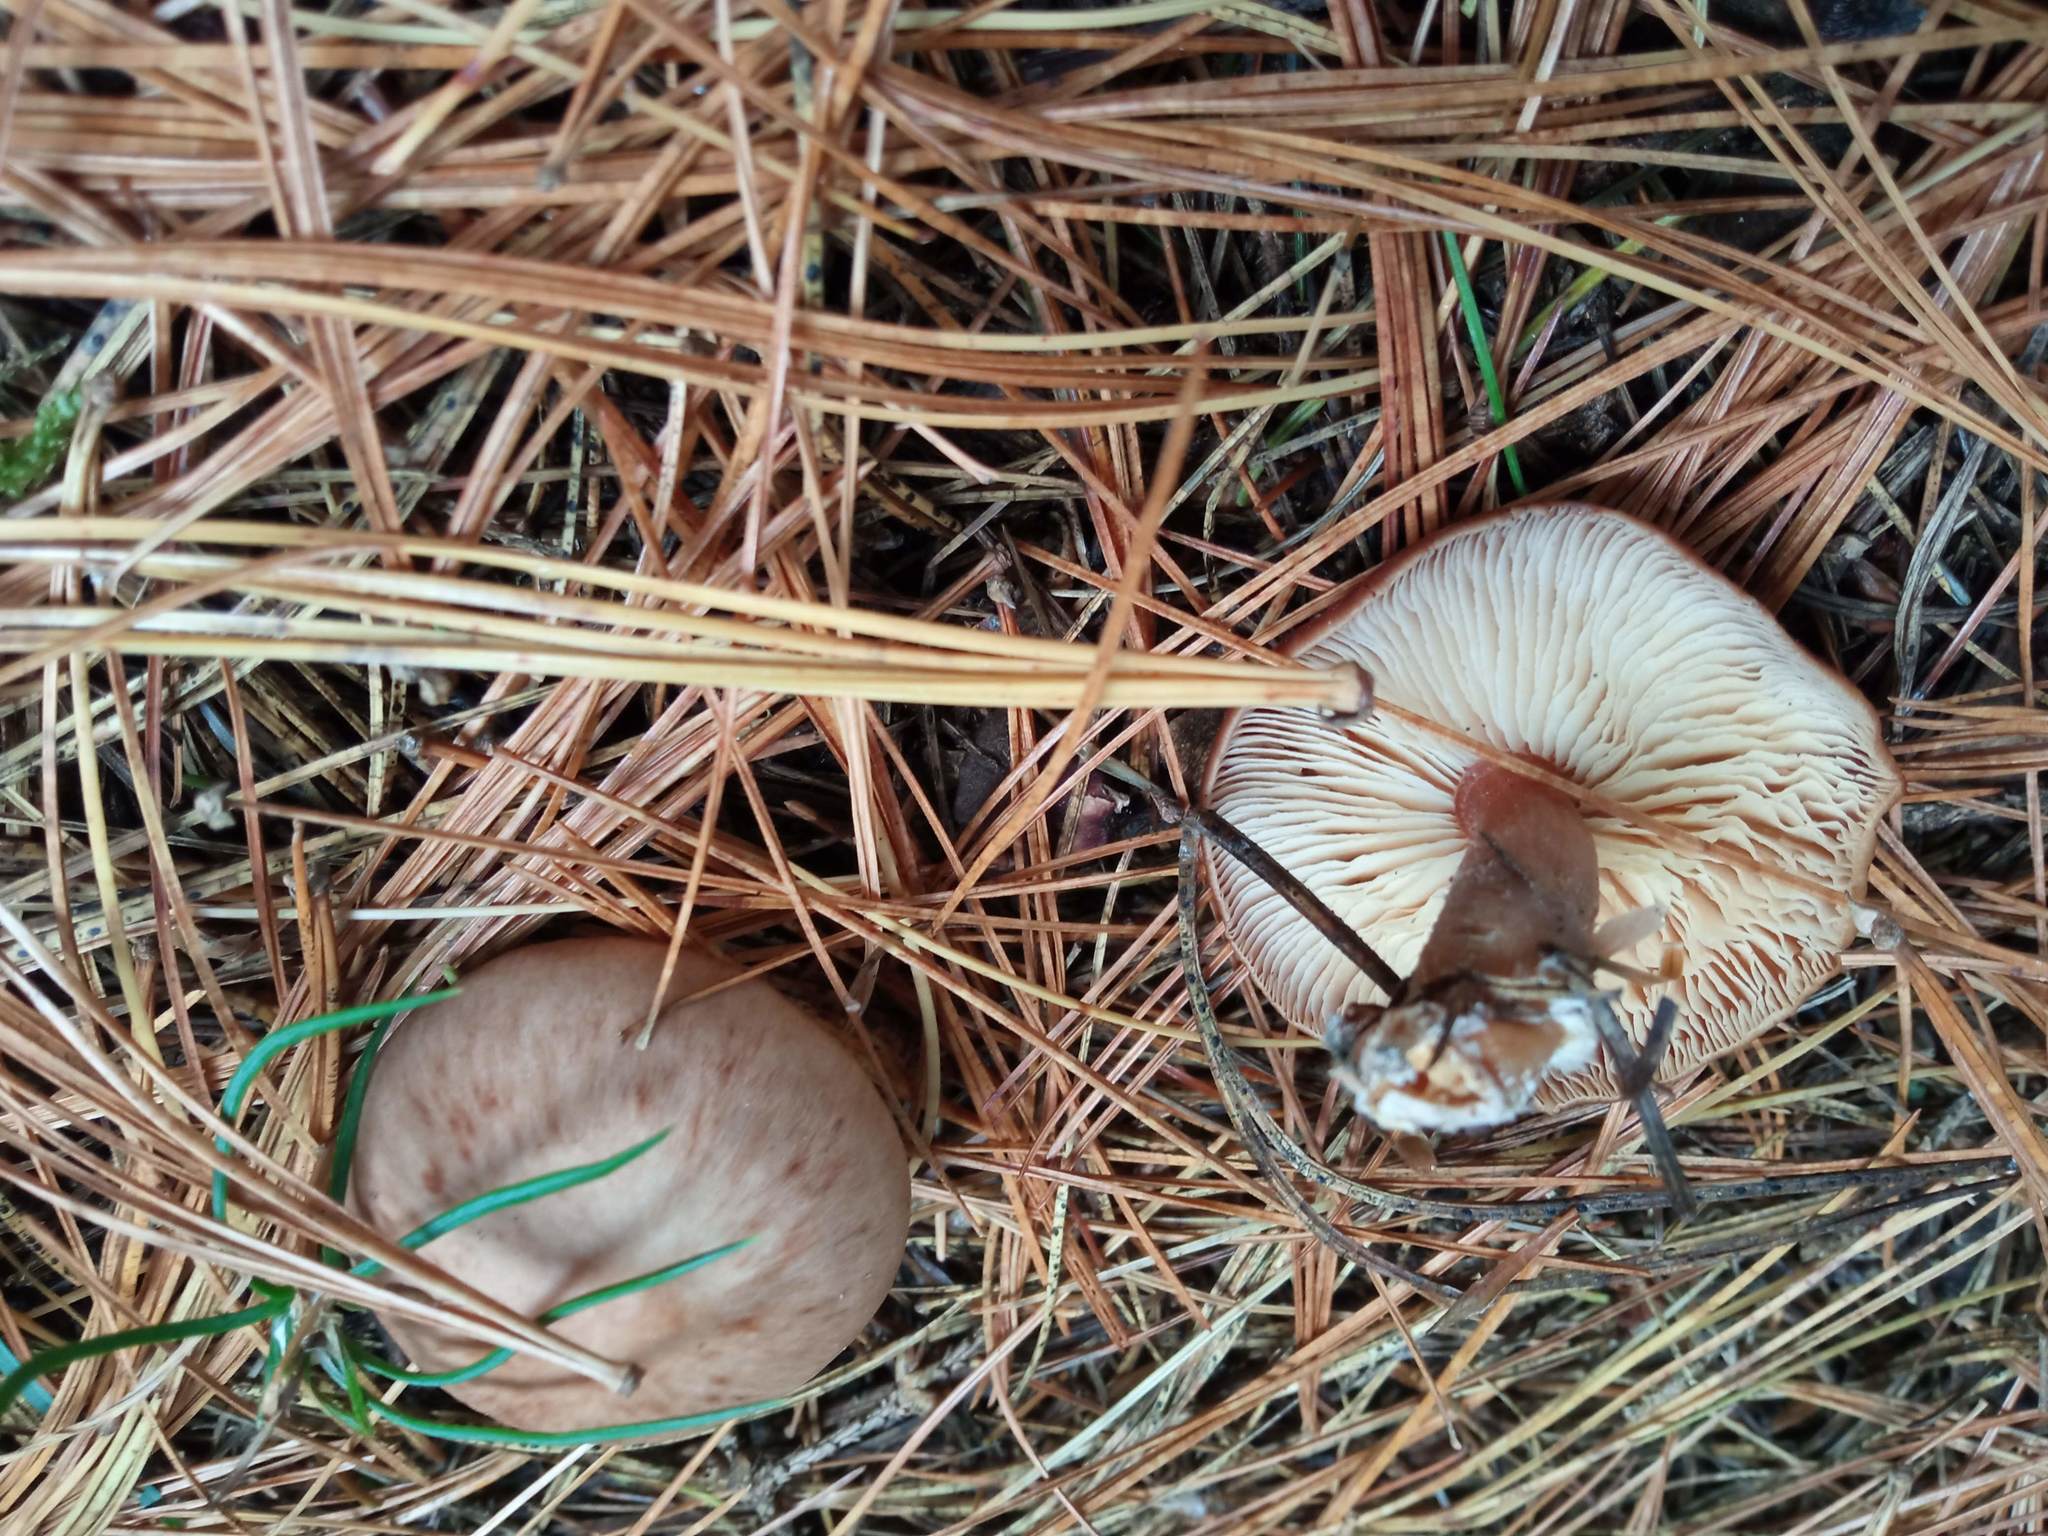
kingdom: Fungi
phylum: Basidiomycota
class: Agaricomycetes
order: Agaricales
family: Omphalotaceae
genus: Rhodocollybia
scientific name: Rhodocollybia butyracea
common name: Butter cap
